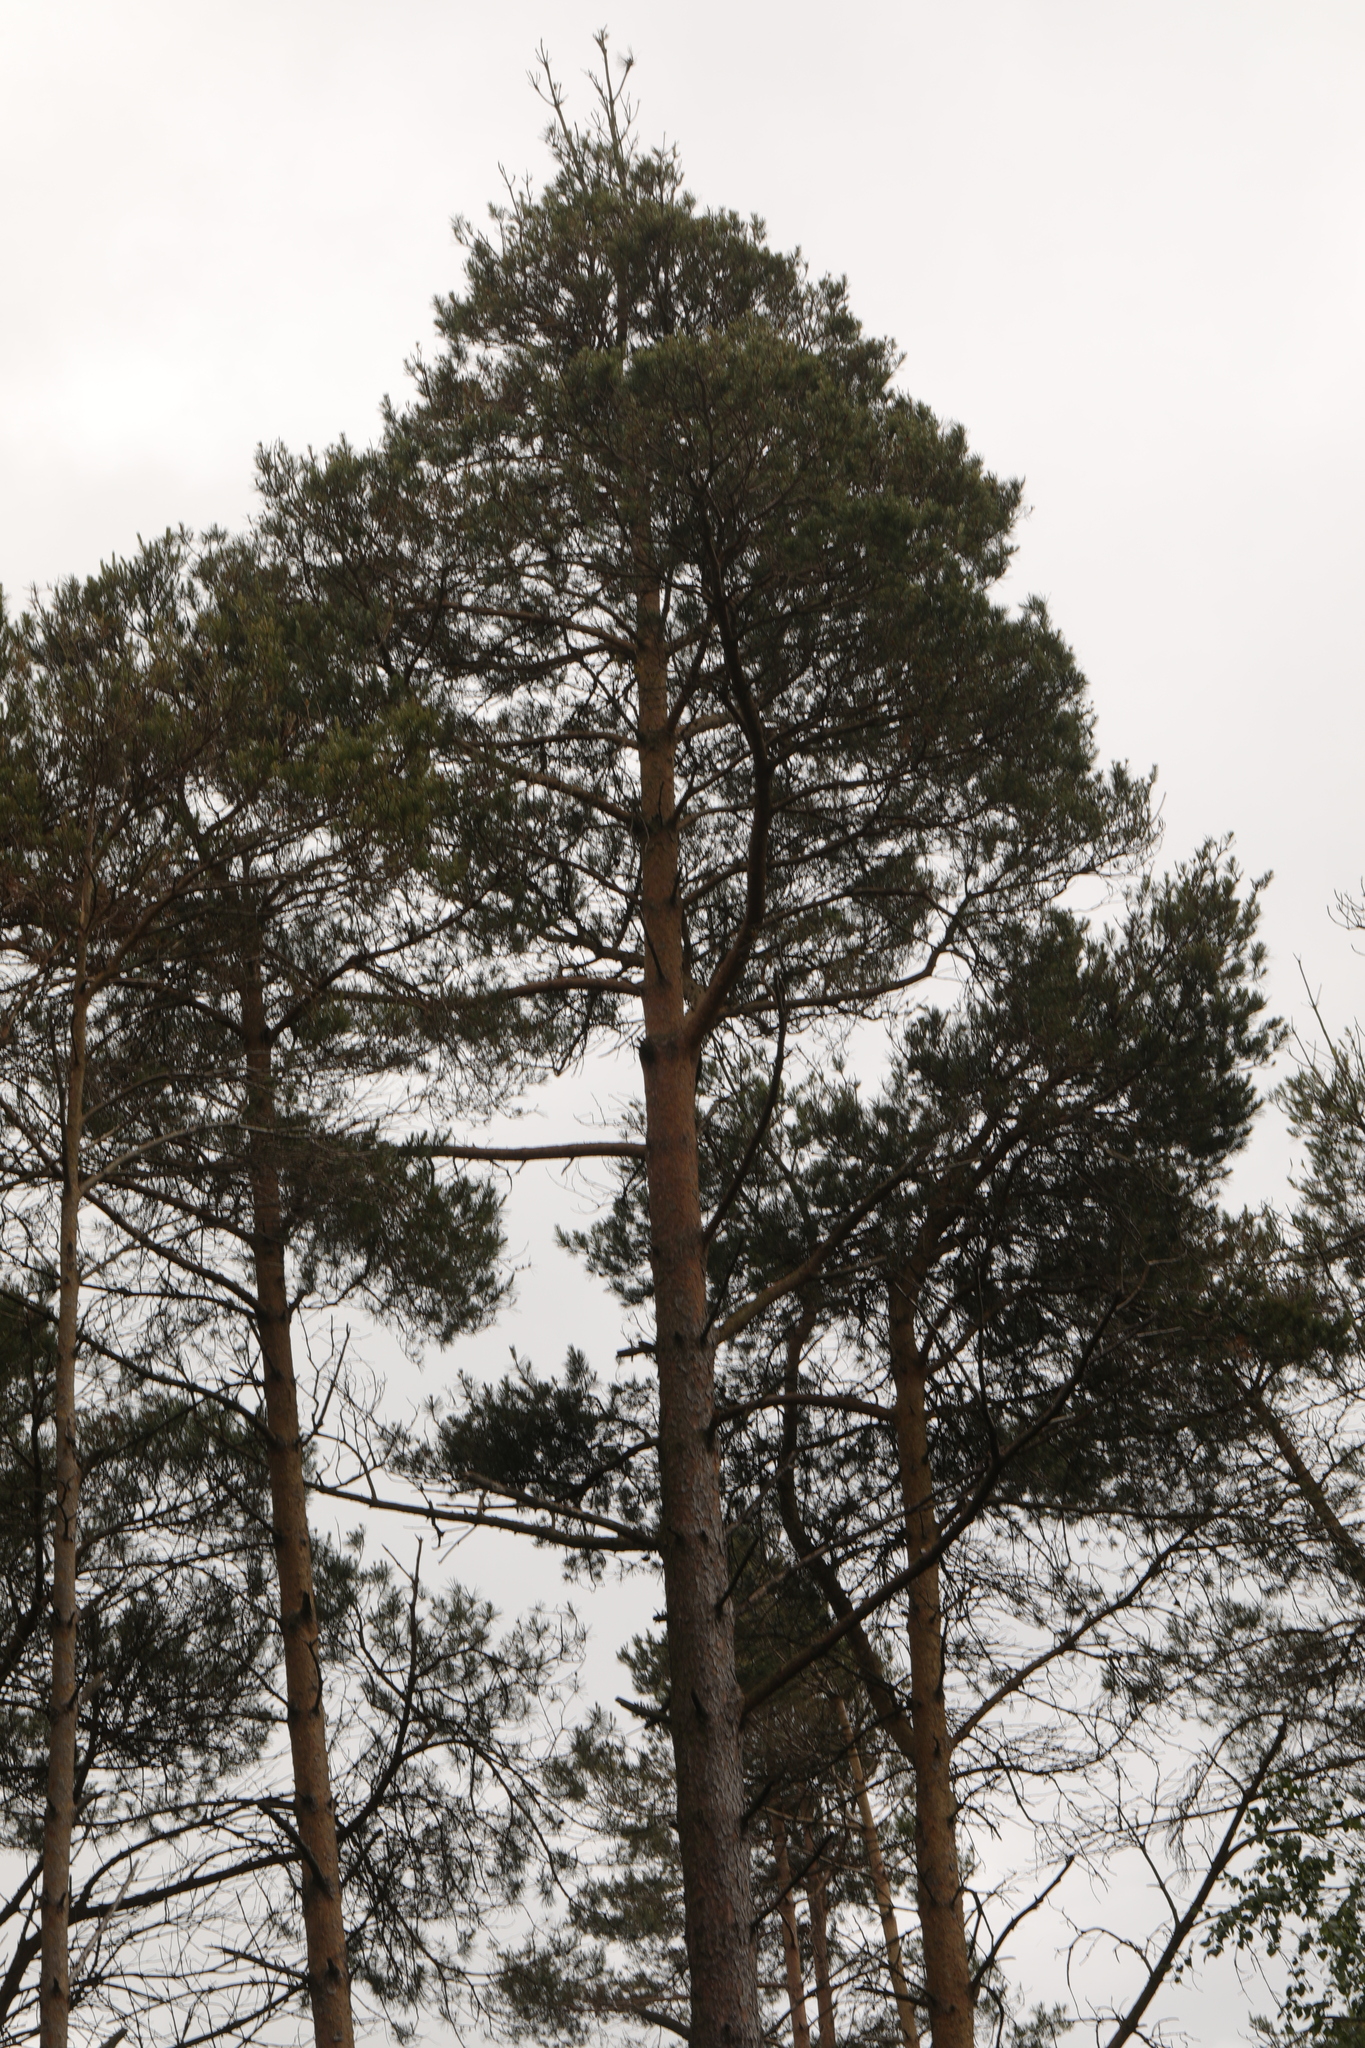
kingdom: Plantae
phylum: Tracheophyta
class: Pinopsida
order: Pinales
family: Pinaceae
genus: Pinus
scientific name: Pinus sylvestris
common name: Scots pine
